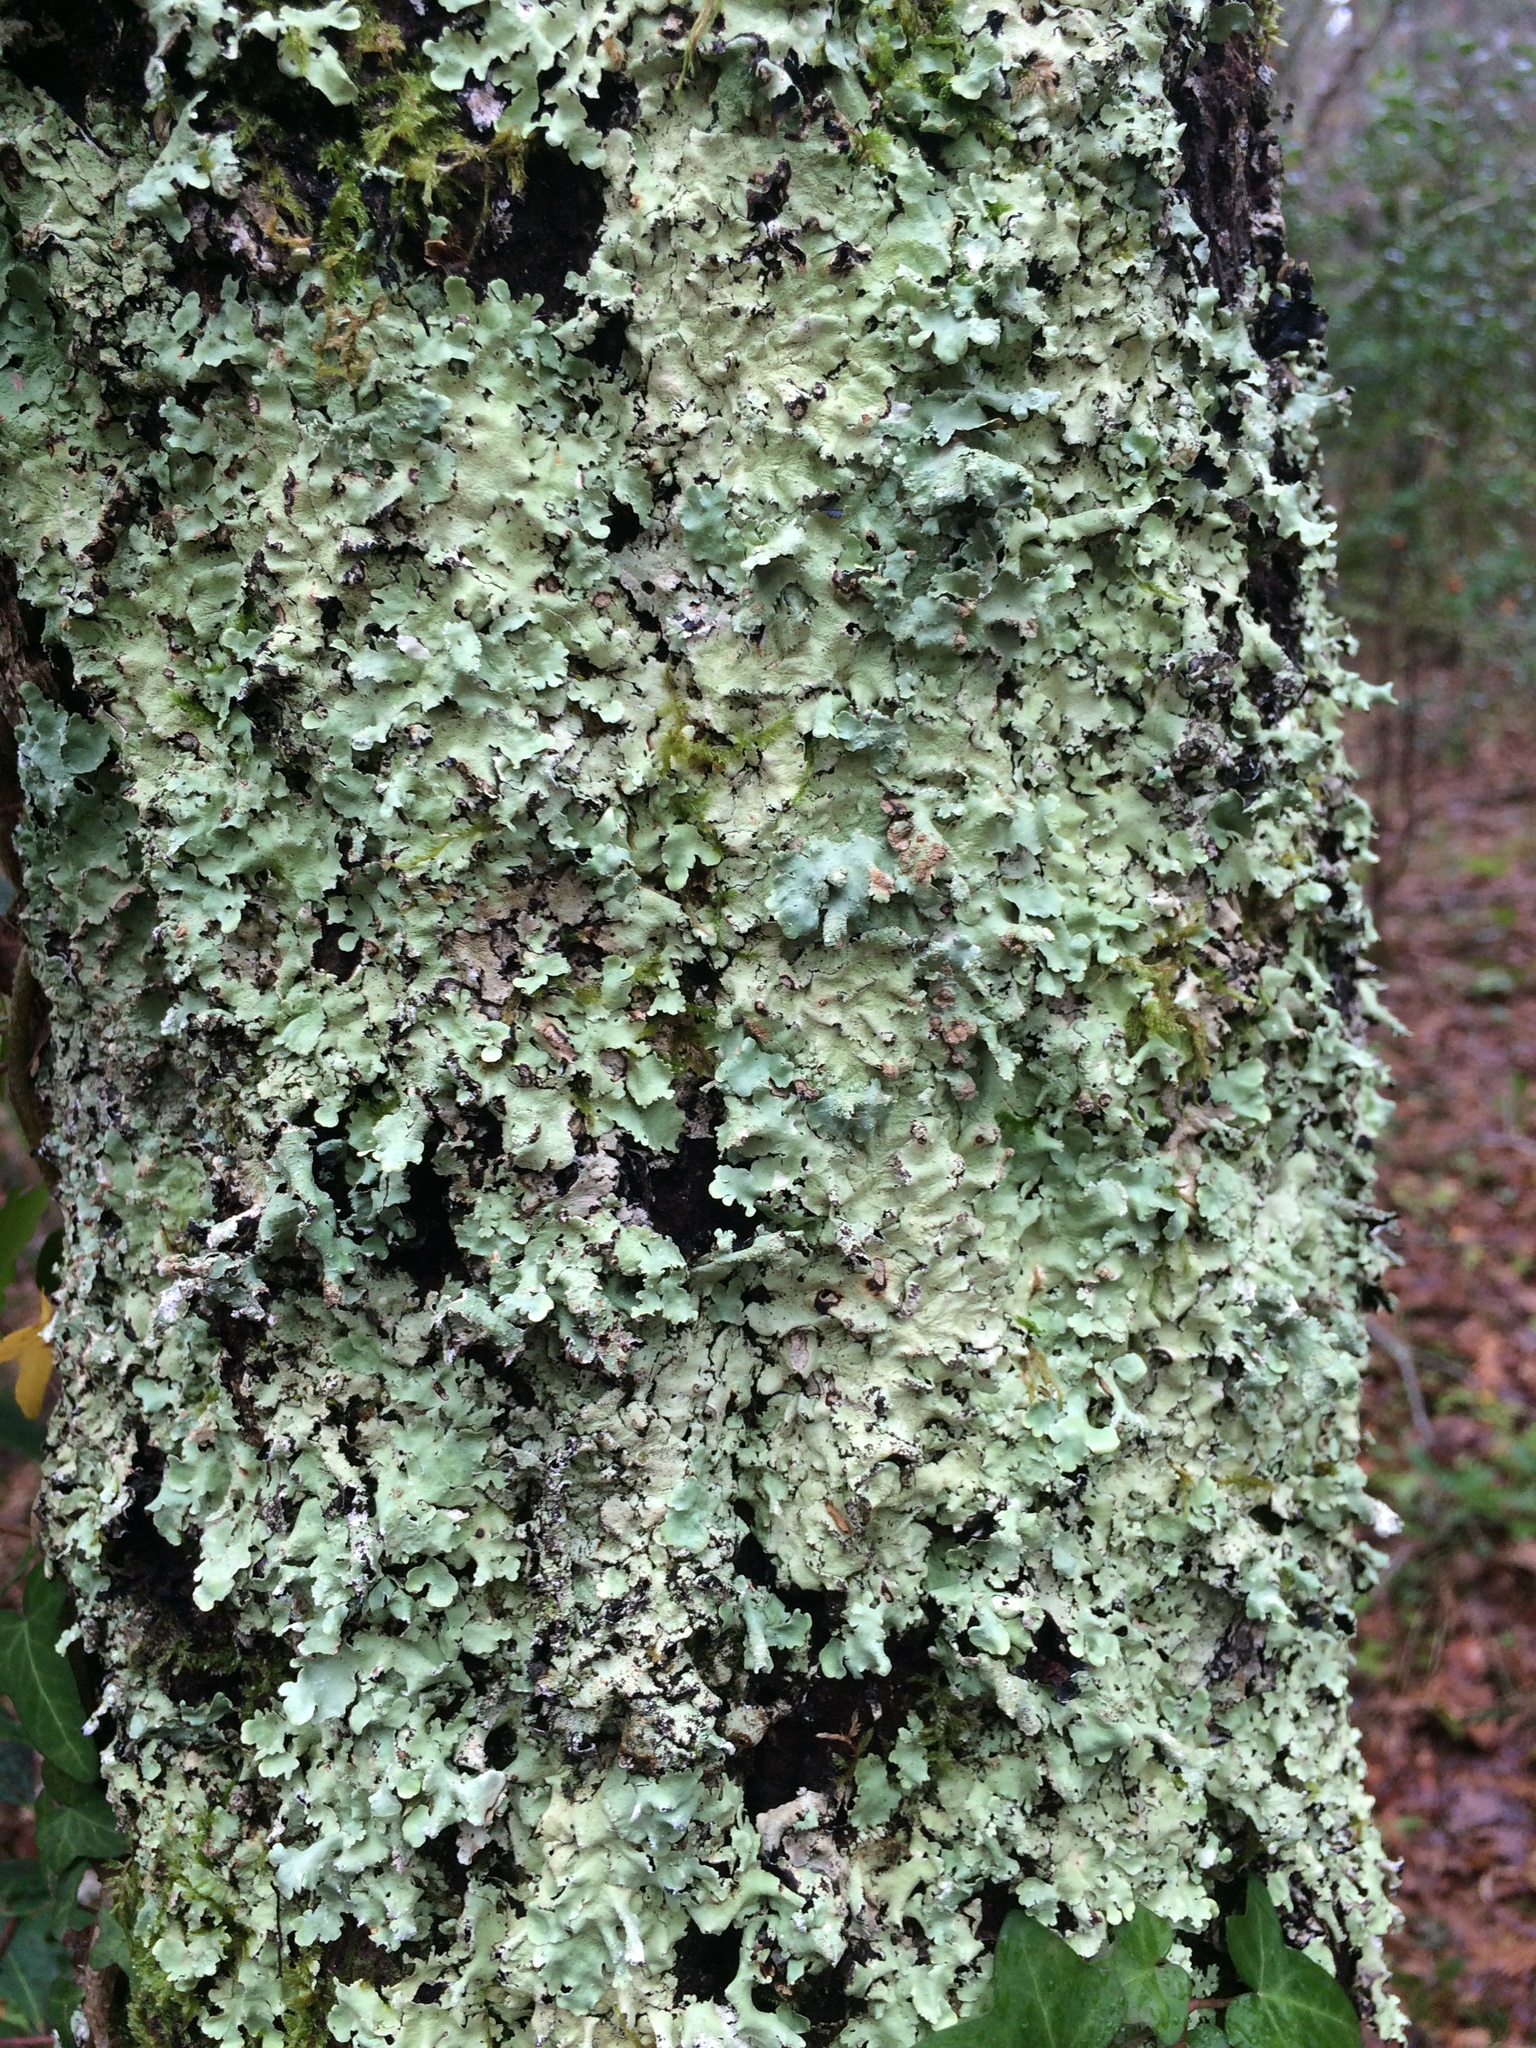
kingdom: Fungi
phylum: Ascomycota
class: Lecanoromycetes
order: Lecanorales
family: Parmeliaceae
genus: Flavoparmelia
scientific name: Flavoparmelia caperata
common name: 40-mile per hour lichen
